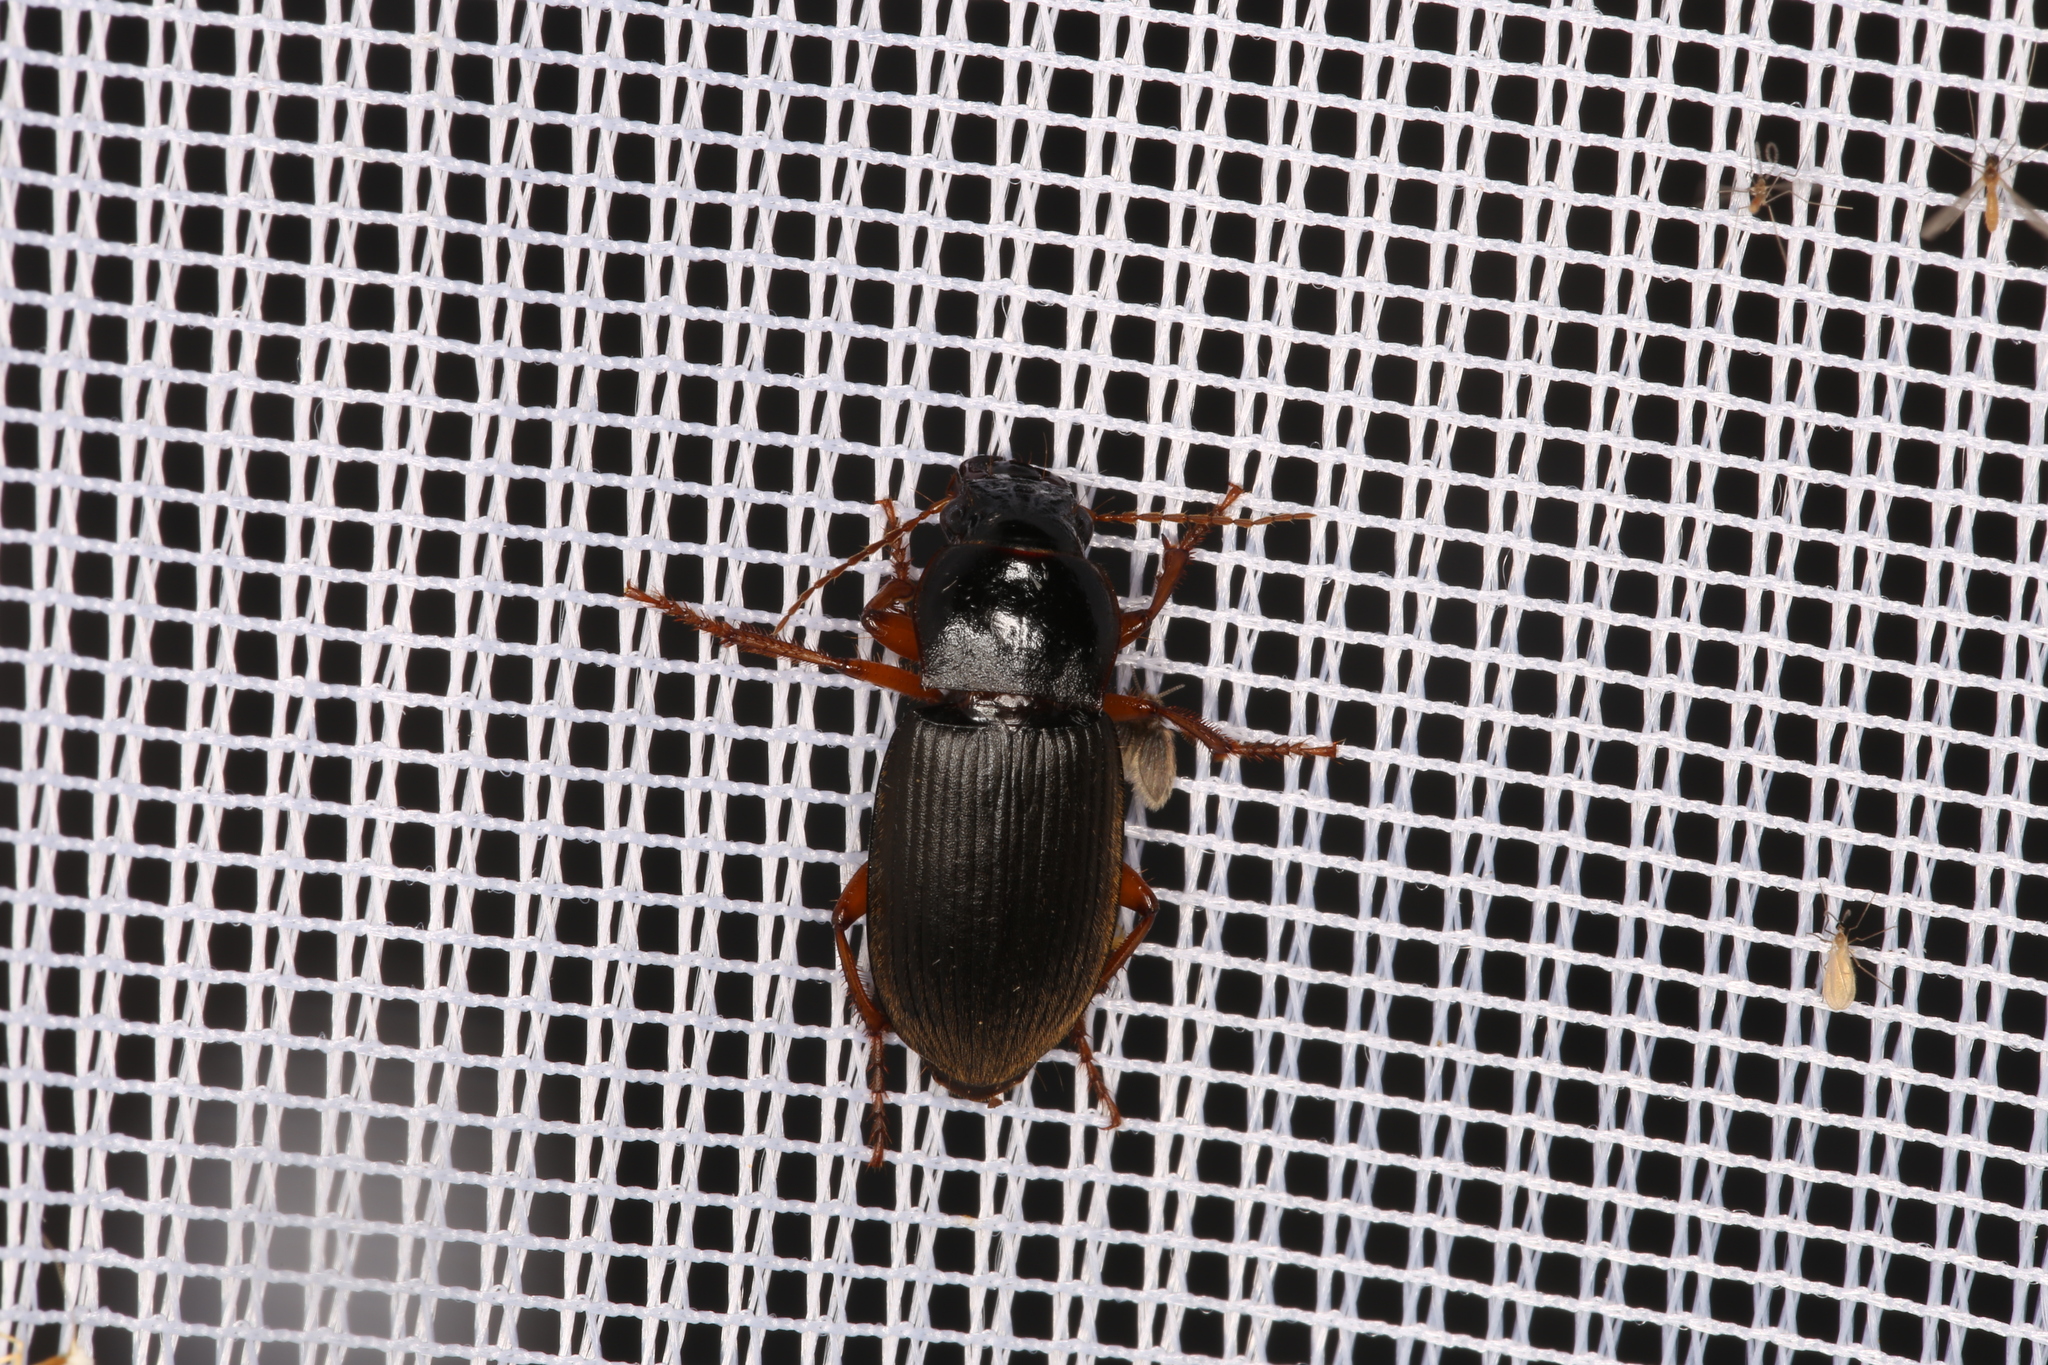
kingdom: Animalia
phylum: Arthropoda
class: Insecta
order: Coleoptera
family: Carabidae
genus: Harpalus
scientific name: Harpalus rufipes
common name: Strawberry harp ground beetle
